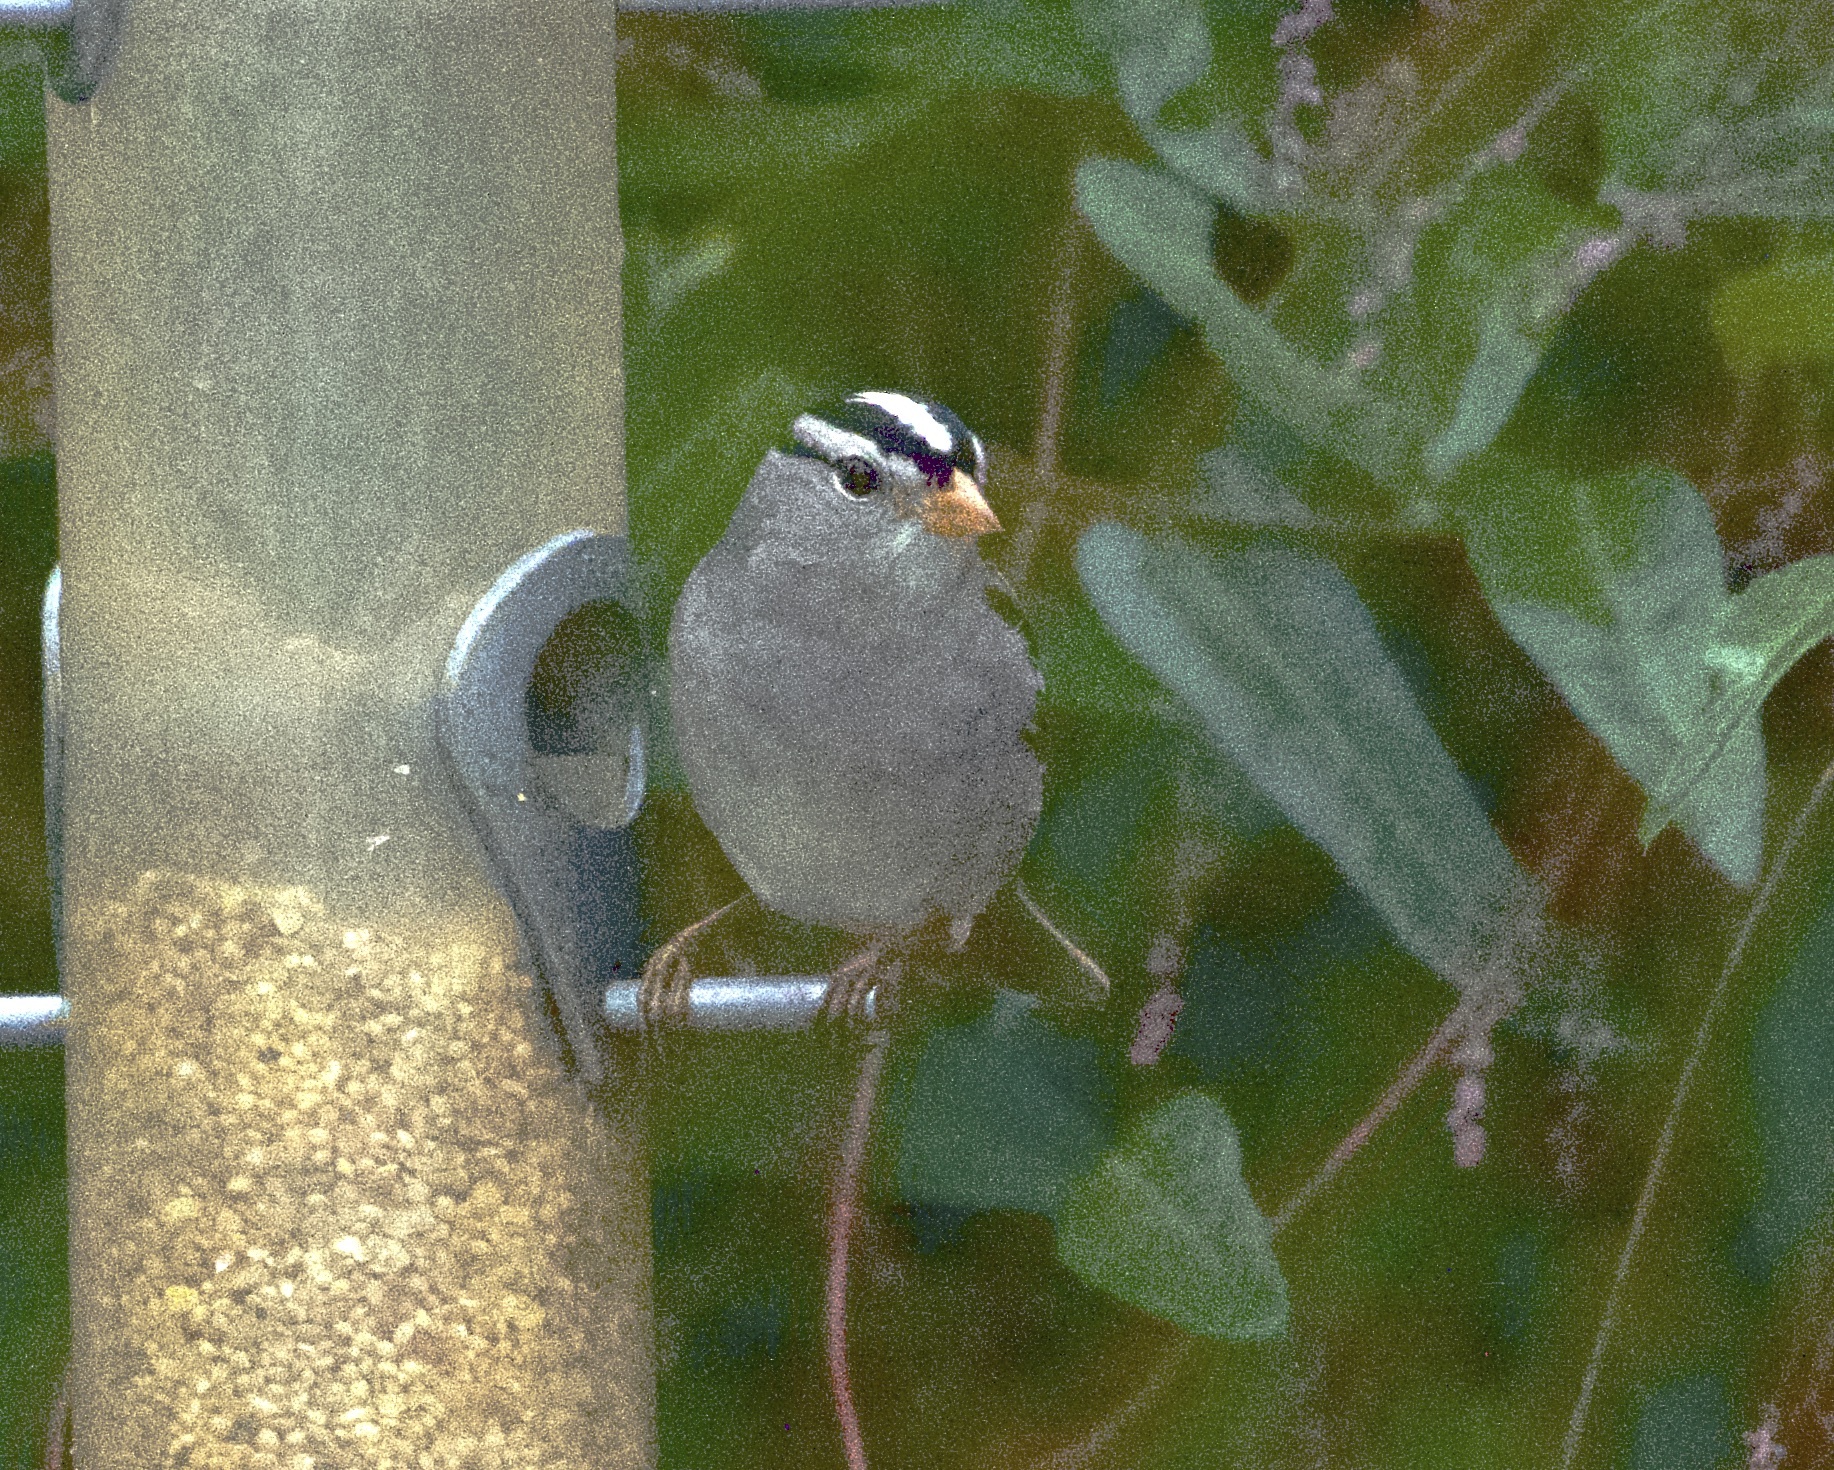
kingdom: Animalia
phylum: Chordata
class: Aves
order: Passeriformes
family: Passerellidae
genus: Zonotrichia
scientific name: Zonotrichia leucophrys
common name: White-crowned sparrow
